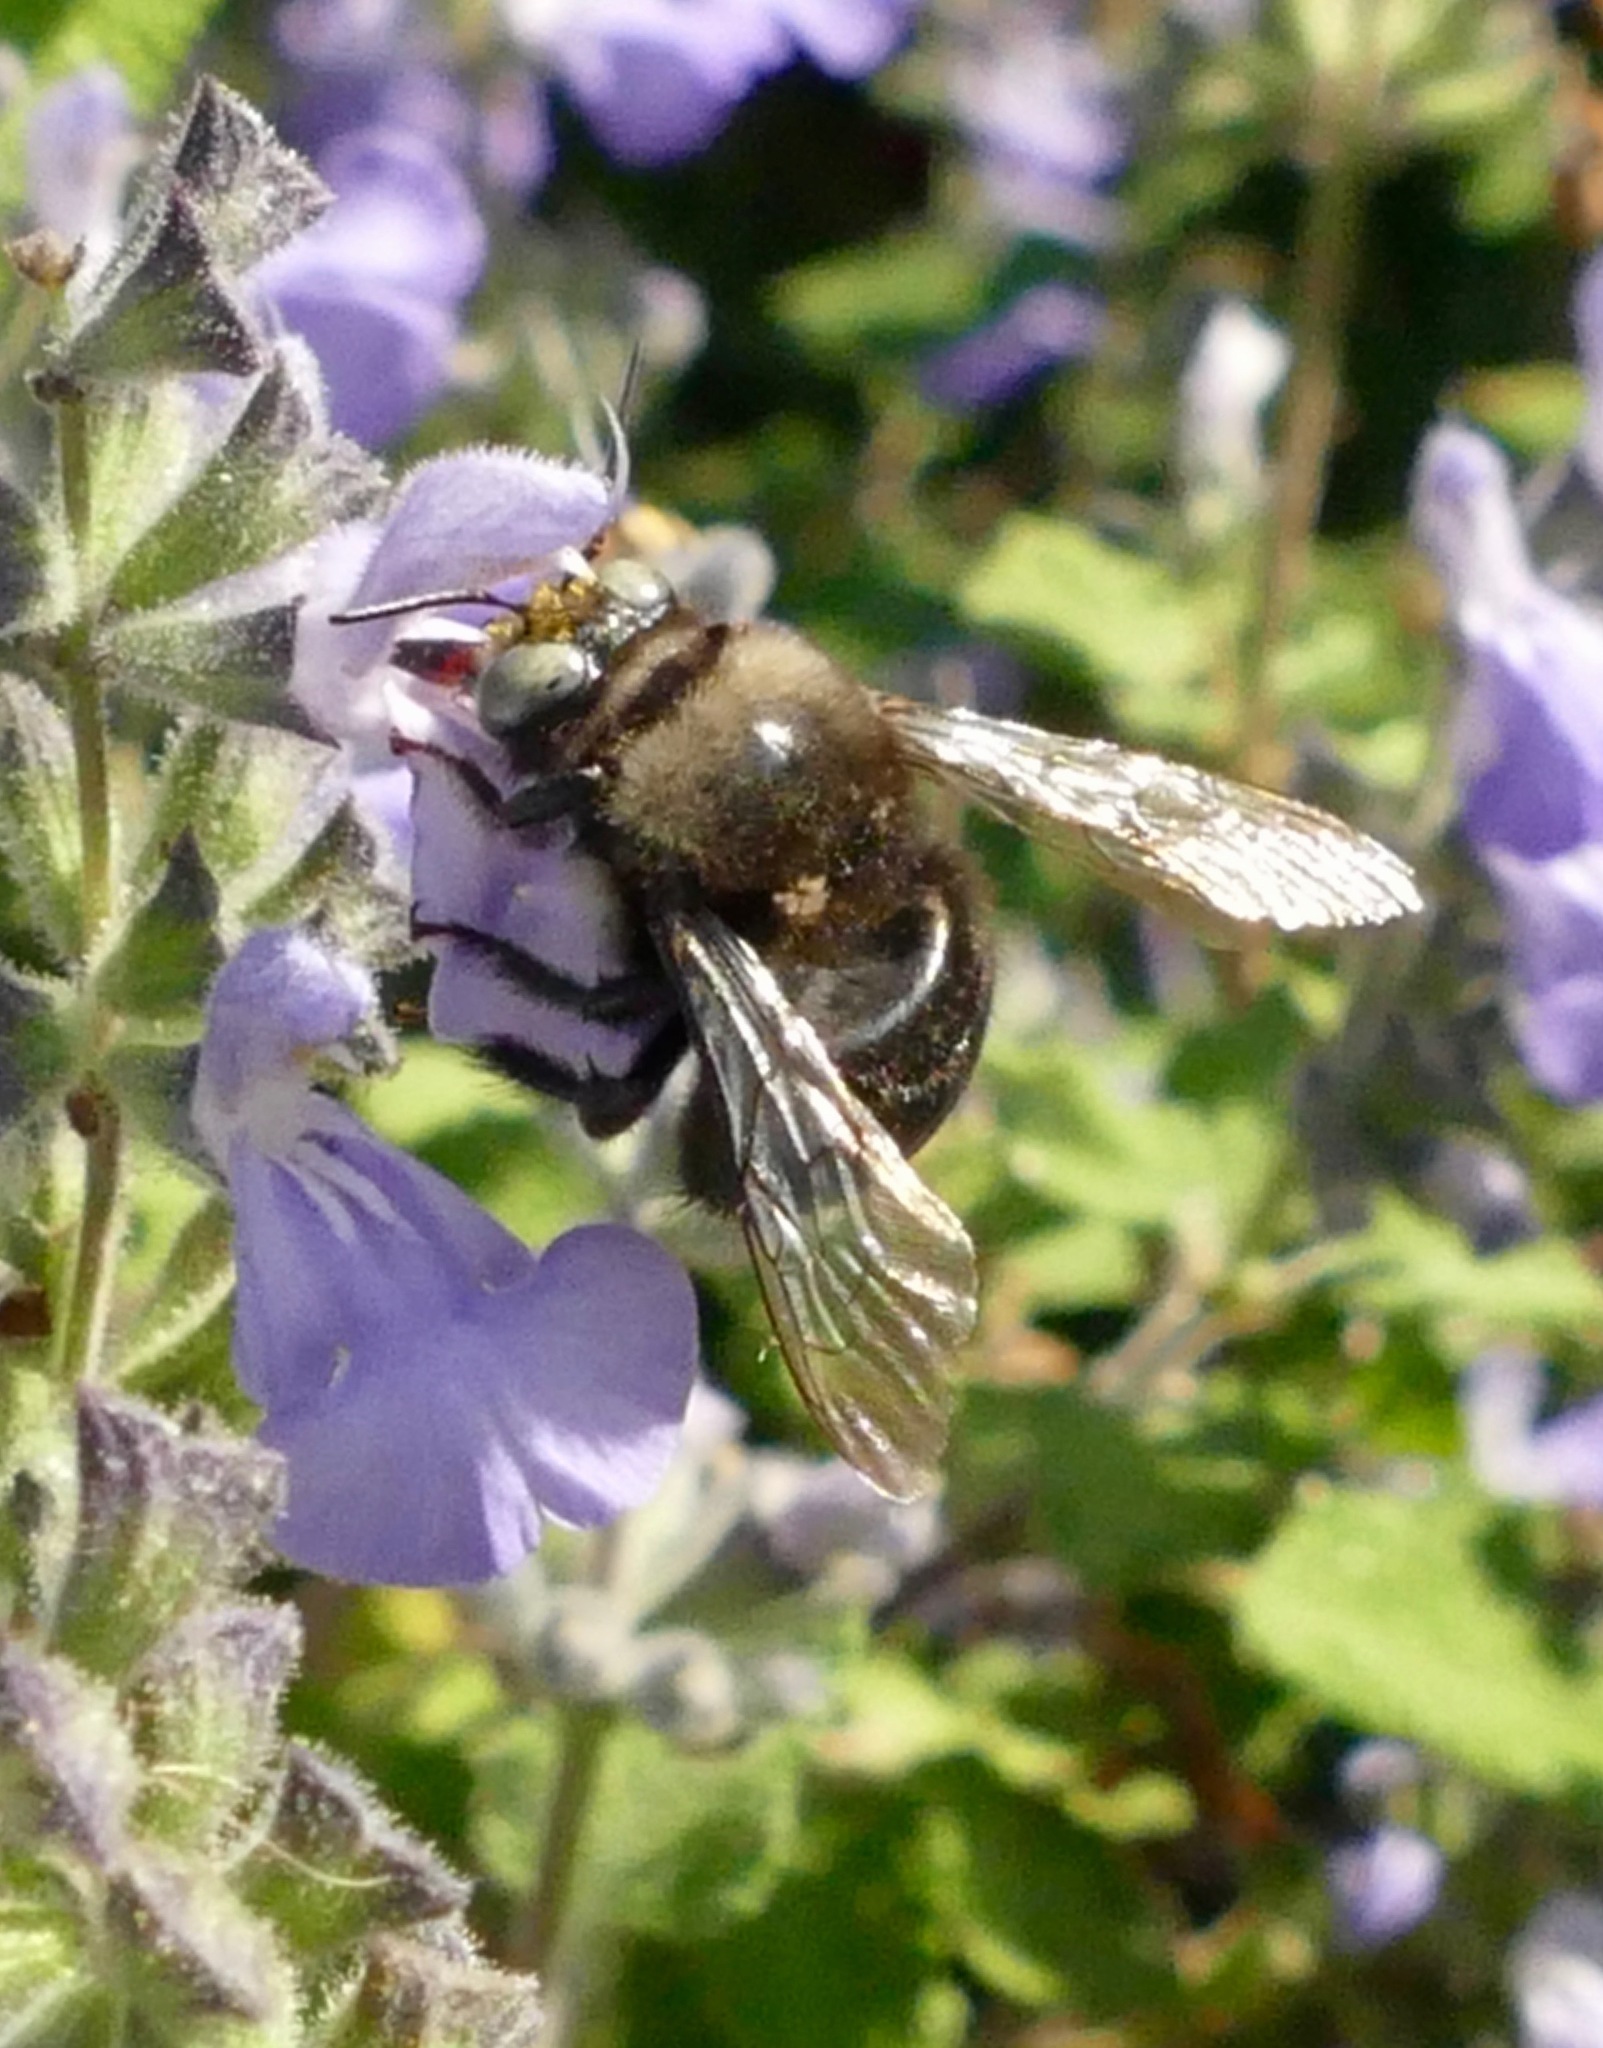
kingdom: Animalia
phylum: Arthropoda
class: Insecta
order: Hymenoptera
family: Apidae
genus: Xylocopa
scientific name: Xylocopa tabaniformis
